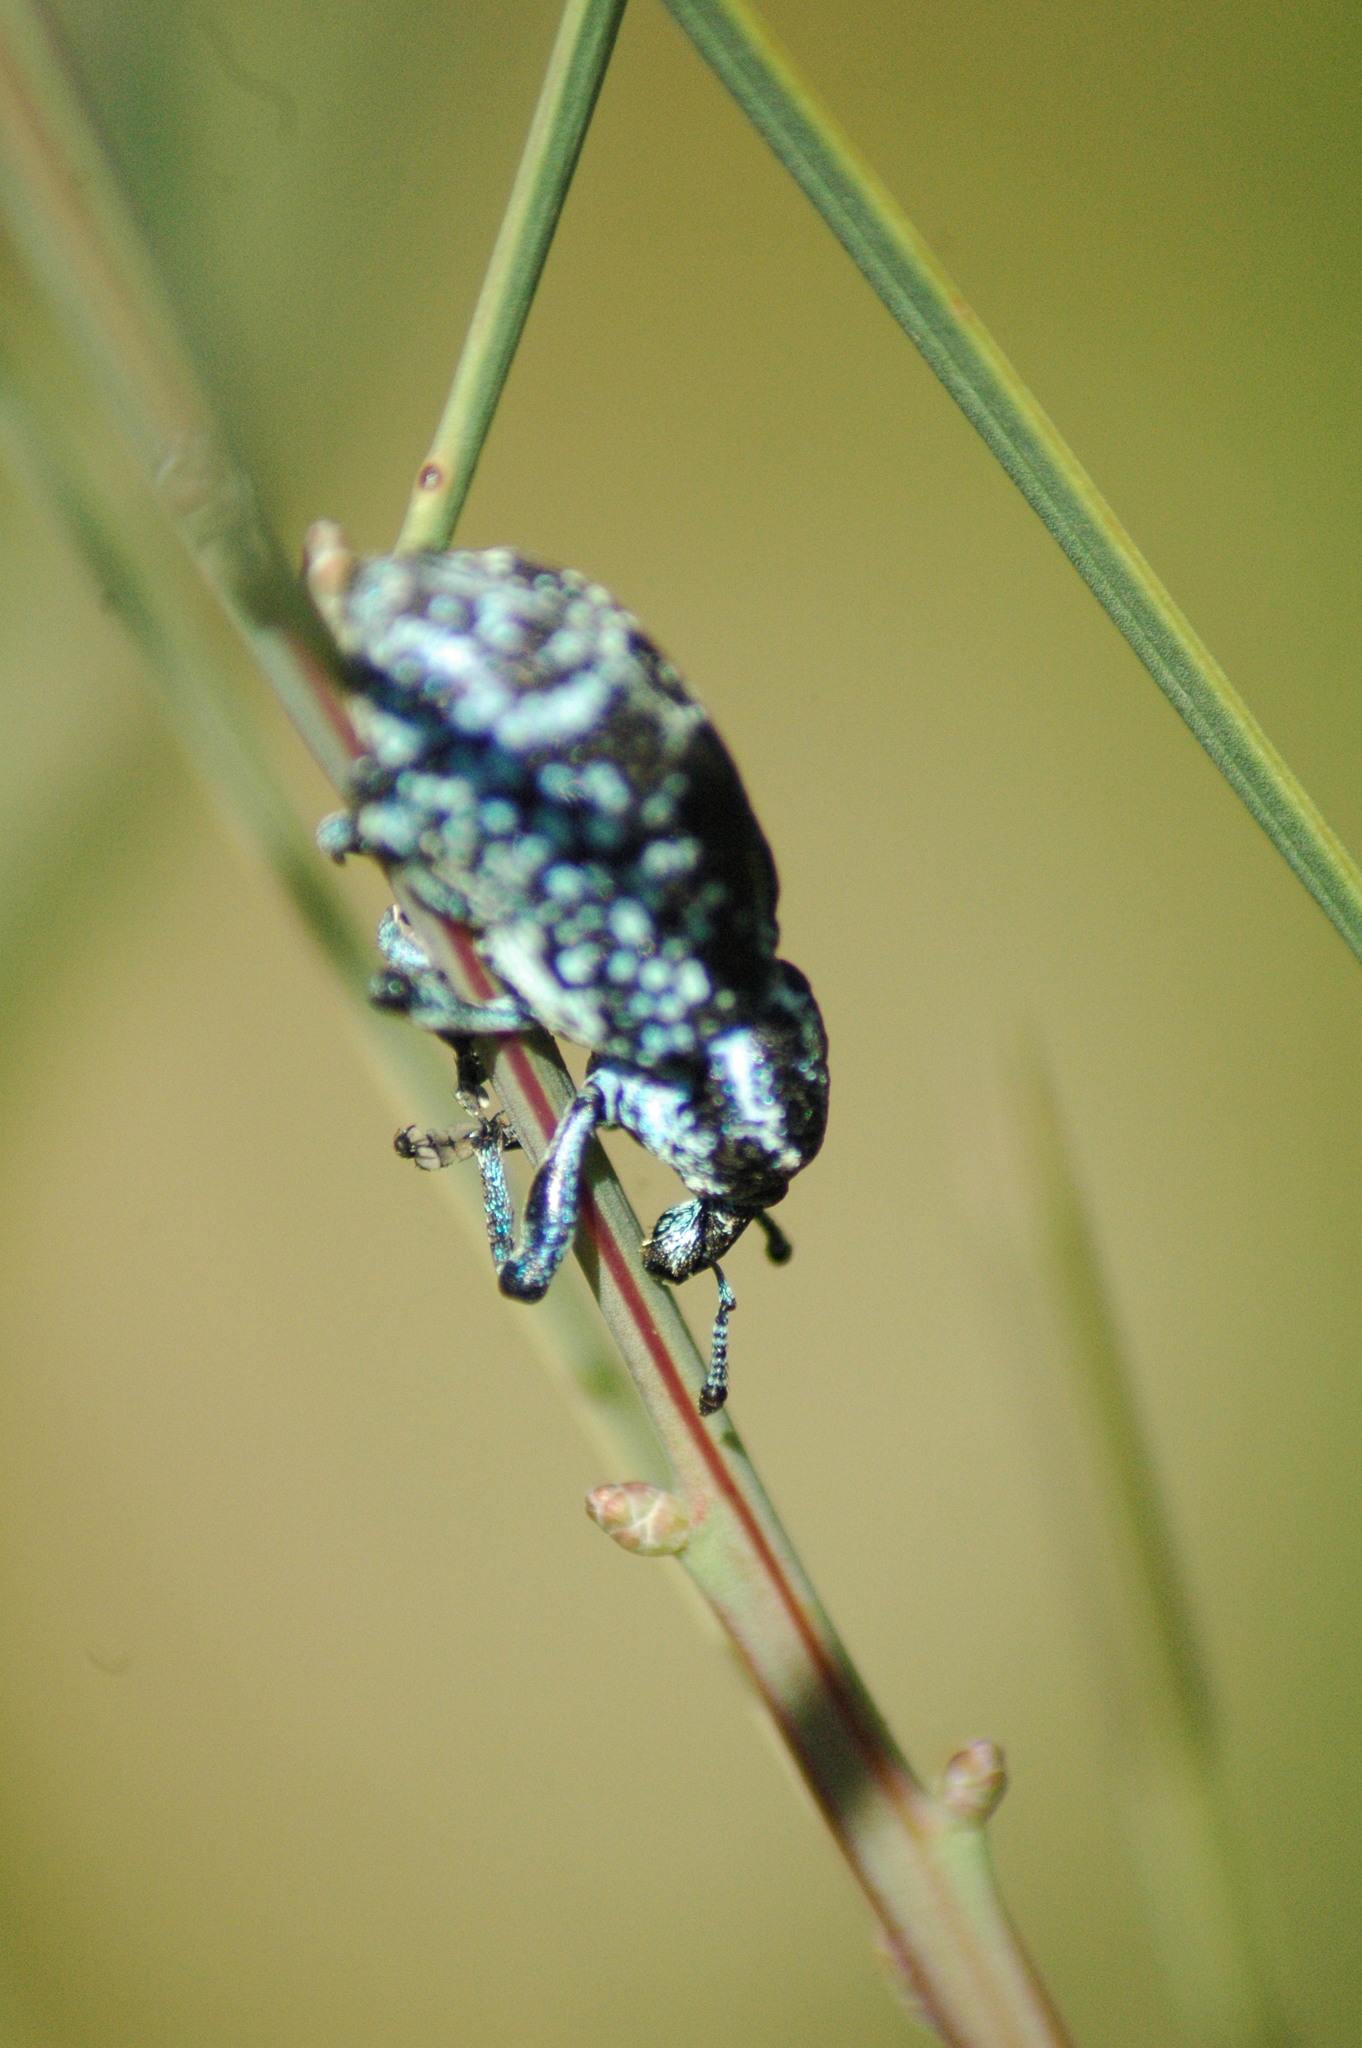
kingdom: Animalia
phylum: Arthropoda
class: Insecta
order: Coleoptera
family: Curculionidae
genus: Chrysolopus
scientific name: Chrysolopus spectabilis
